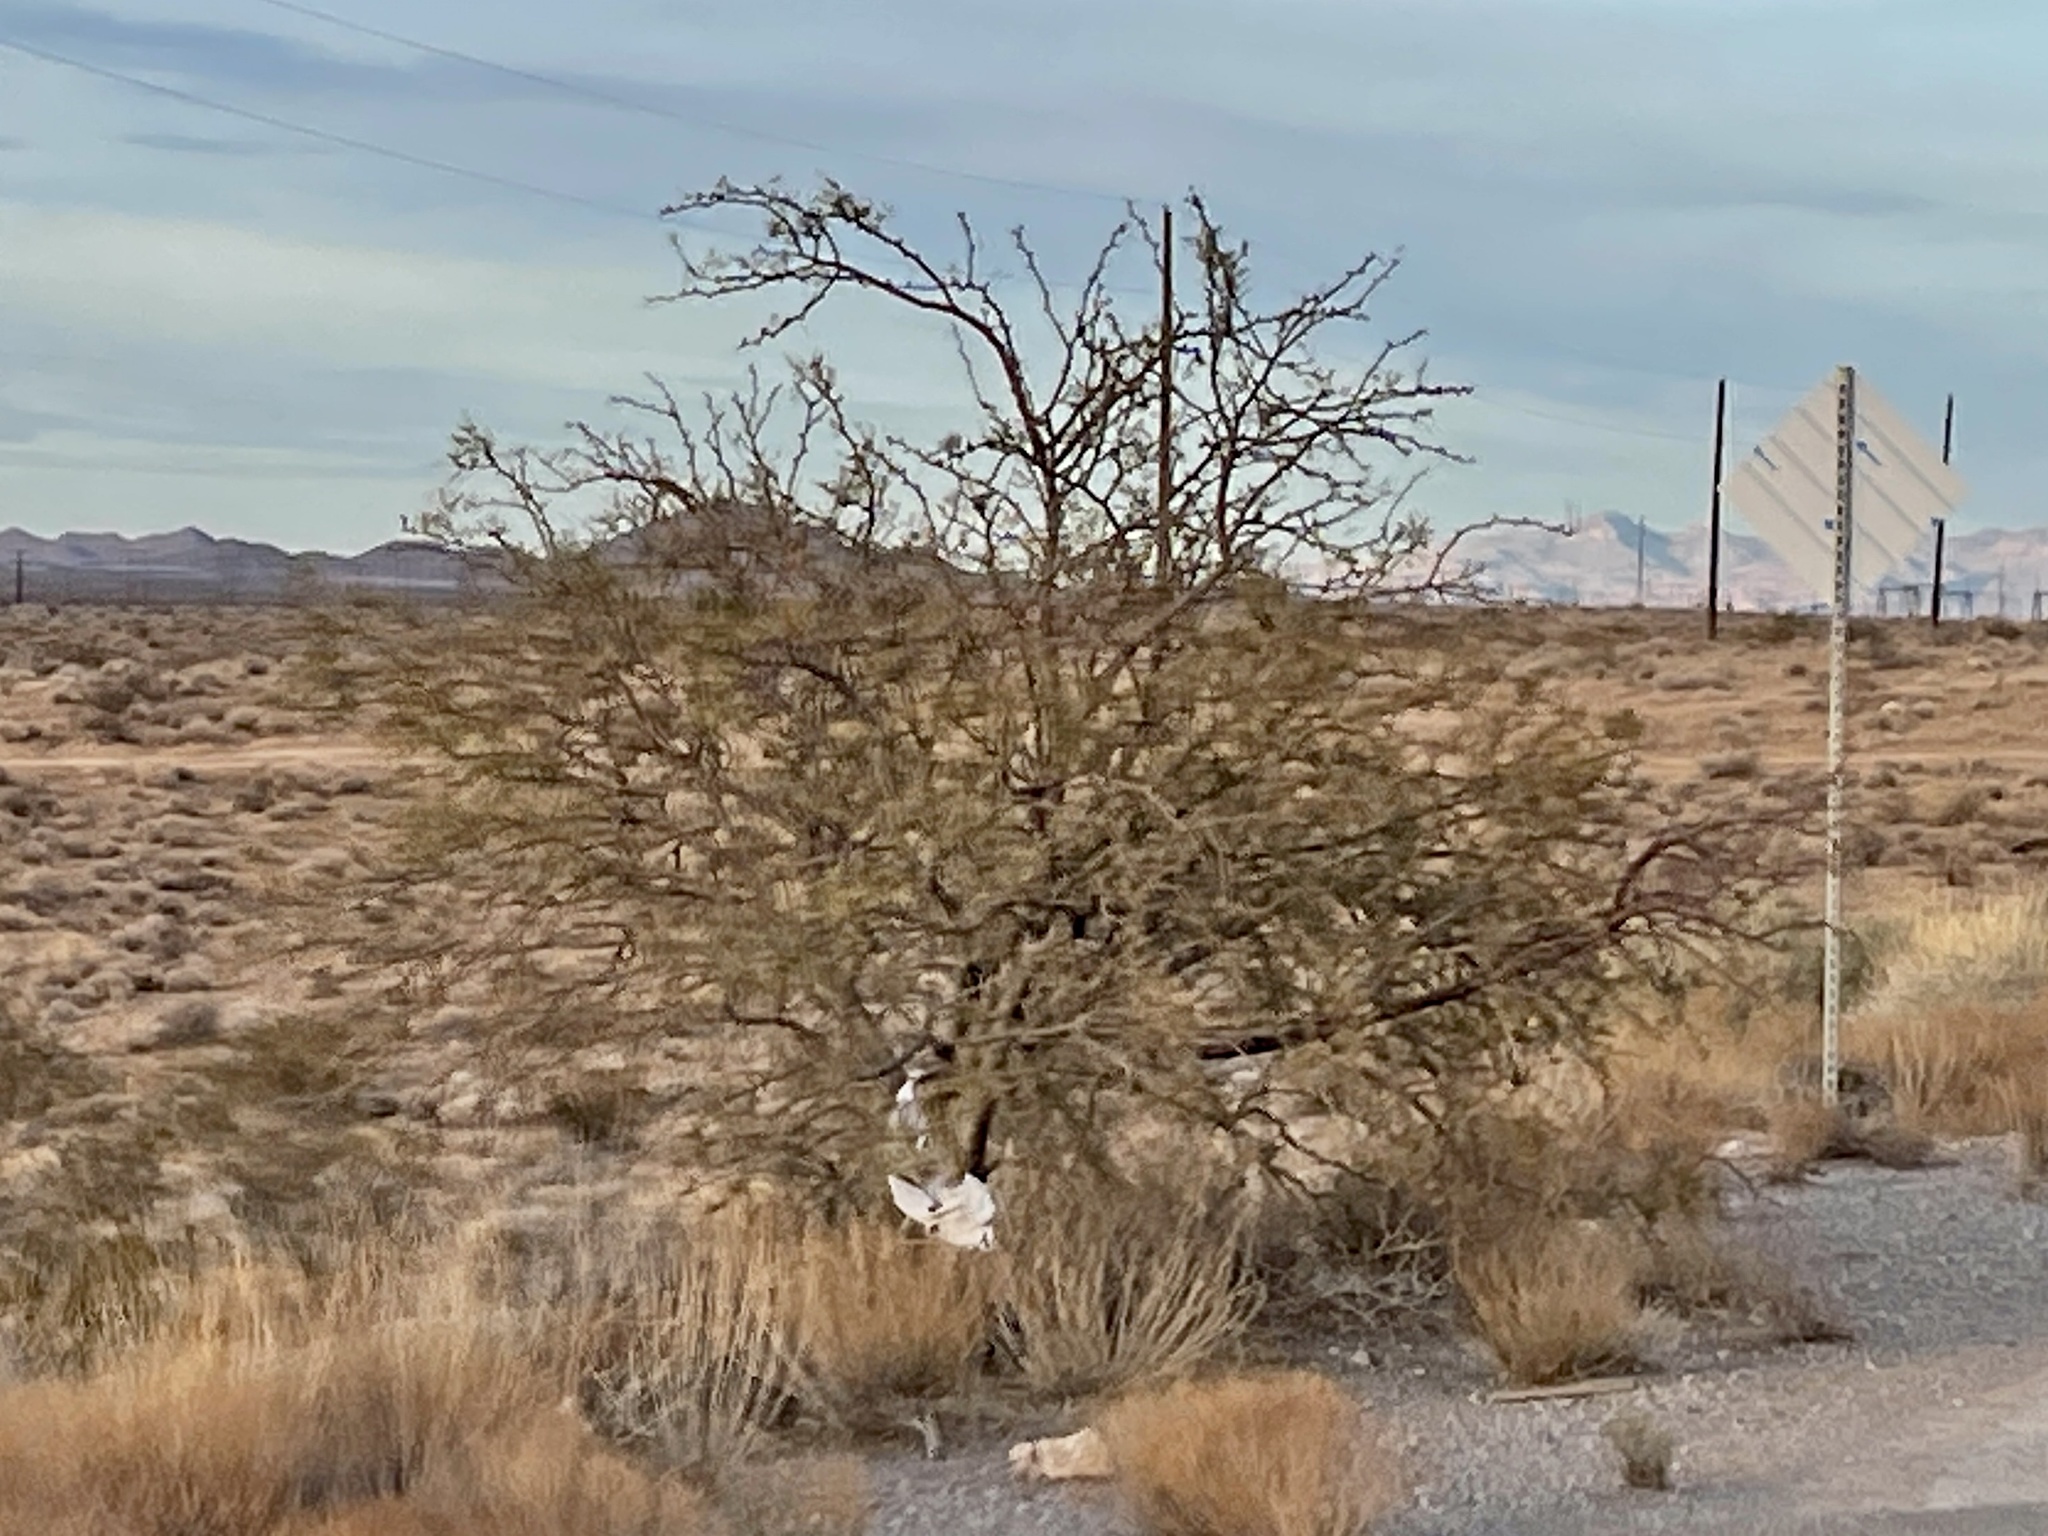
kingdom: Plantae
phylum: Tracheophyta
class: Magnoliopsida
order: Fabales
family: Fabaceae
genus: Prosopis
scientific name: Prosopis pubescens
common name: Screw-bean
